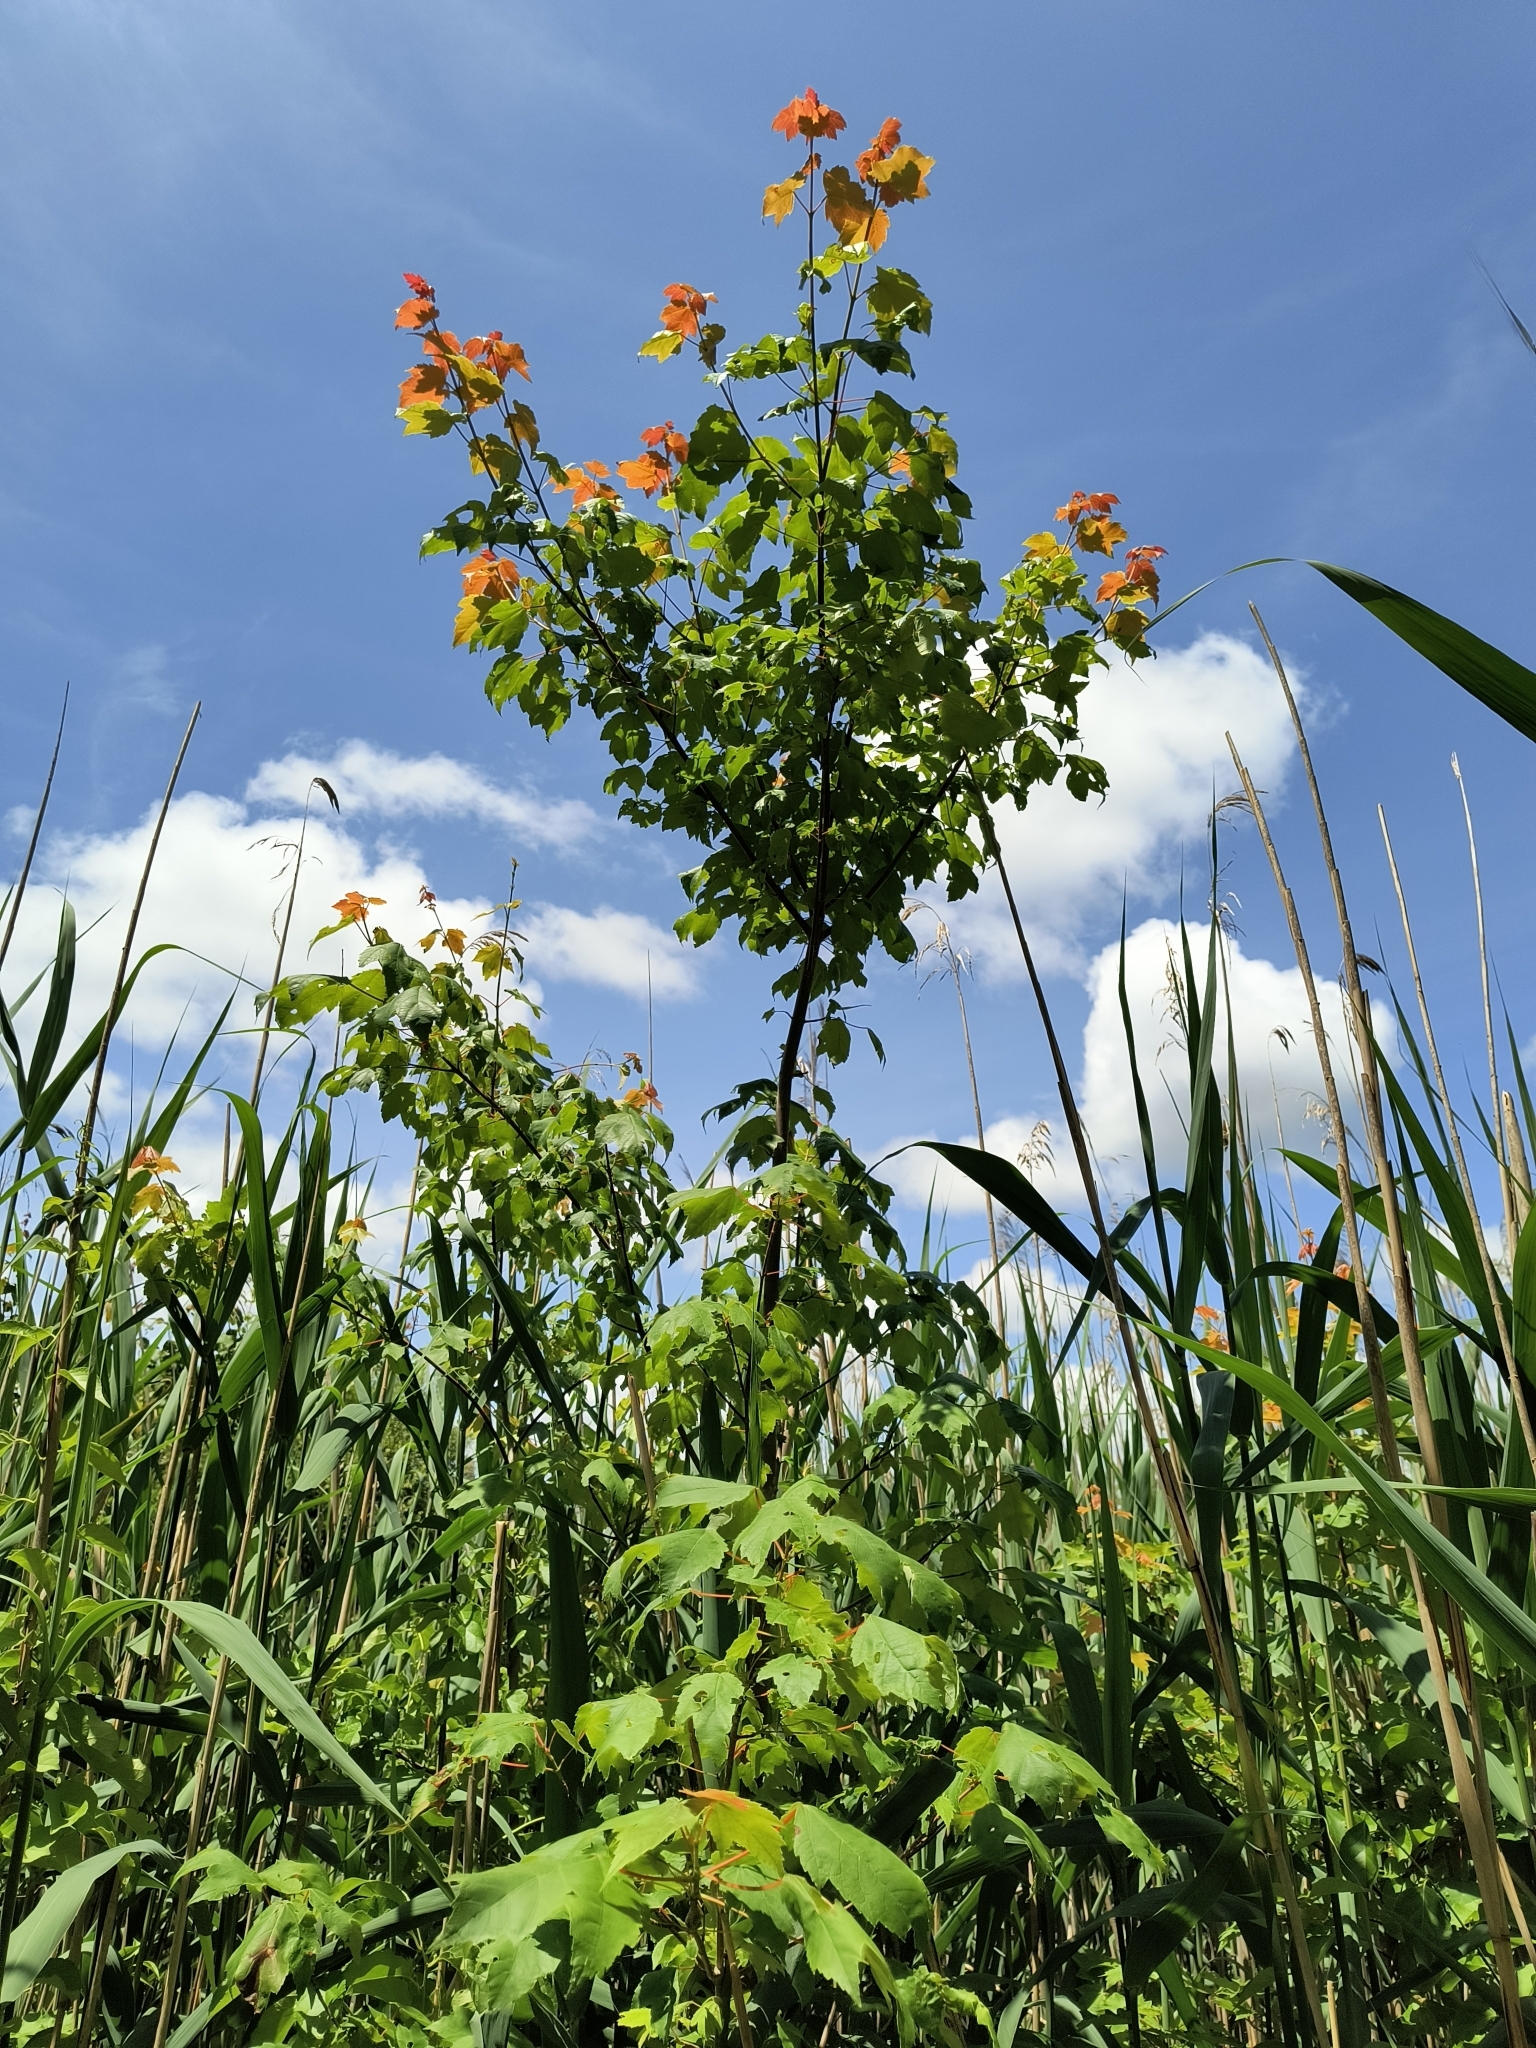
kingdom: Plantae
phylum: Tracheophyta
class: Magnoliopsida
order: Sapindales
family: Sapindaceae
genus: Acer
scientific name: Acer rubrum
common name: Red maple
